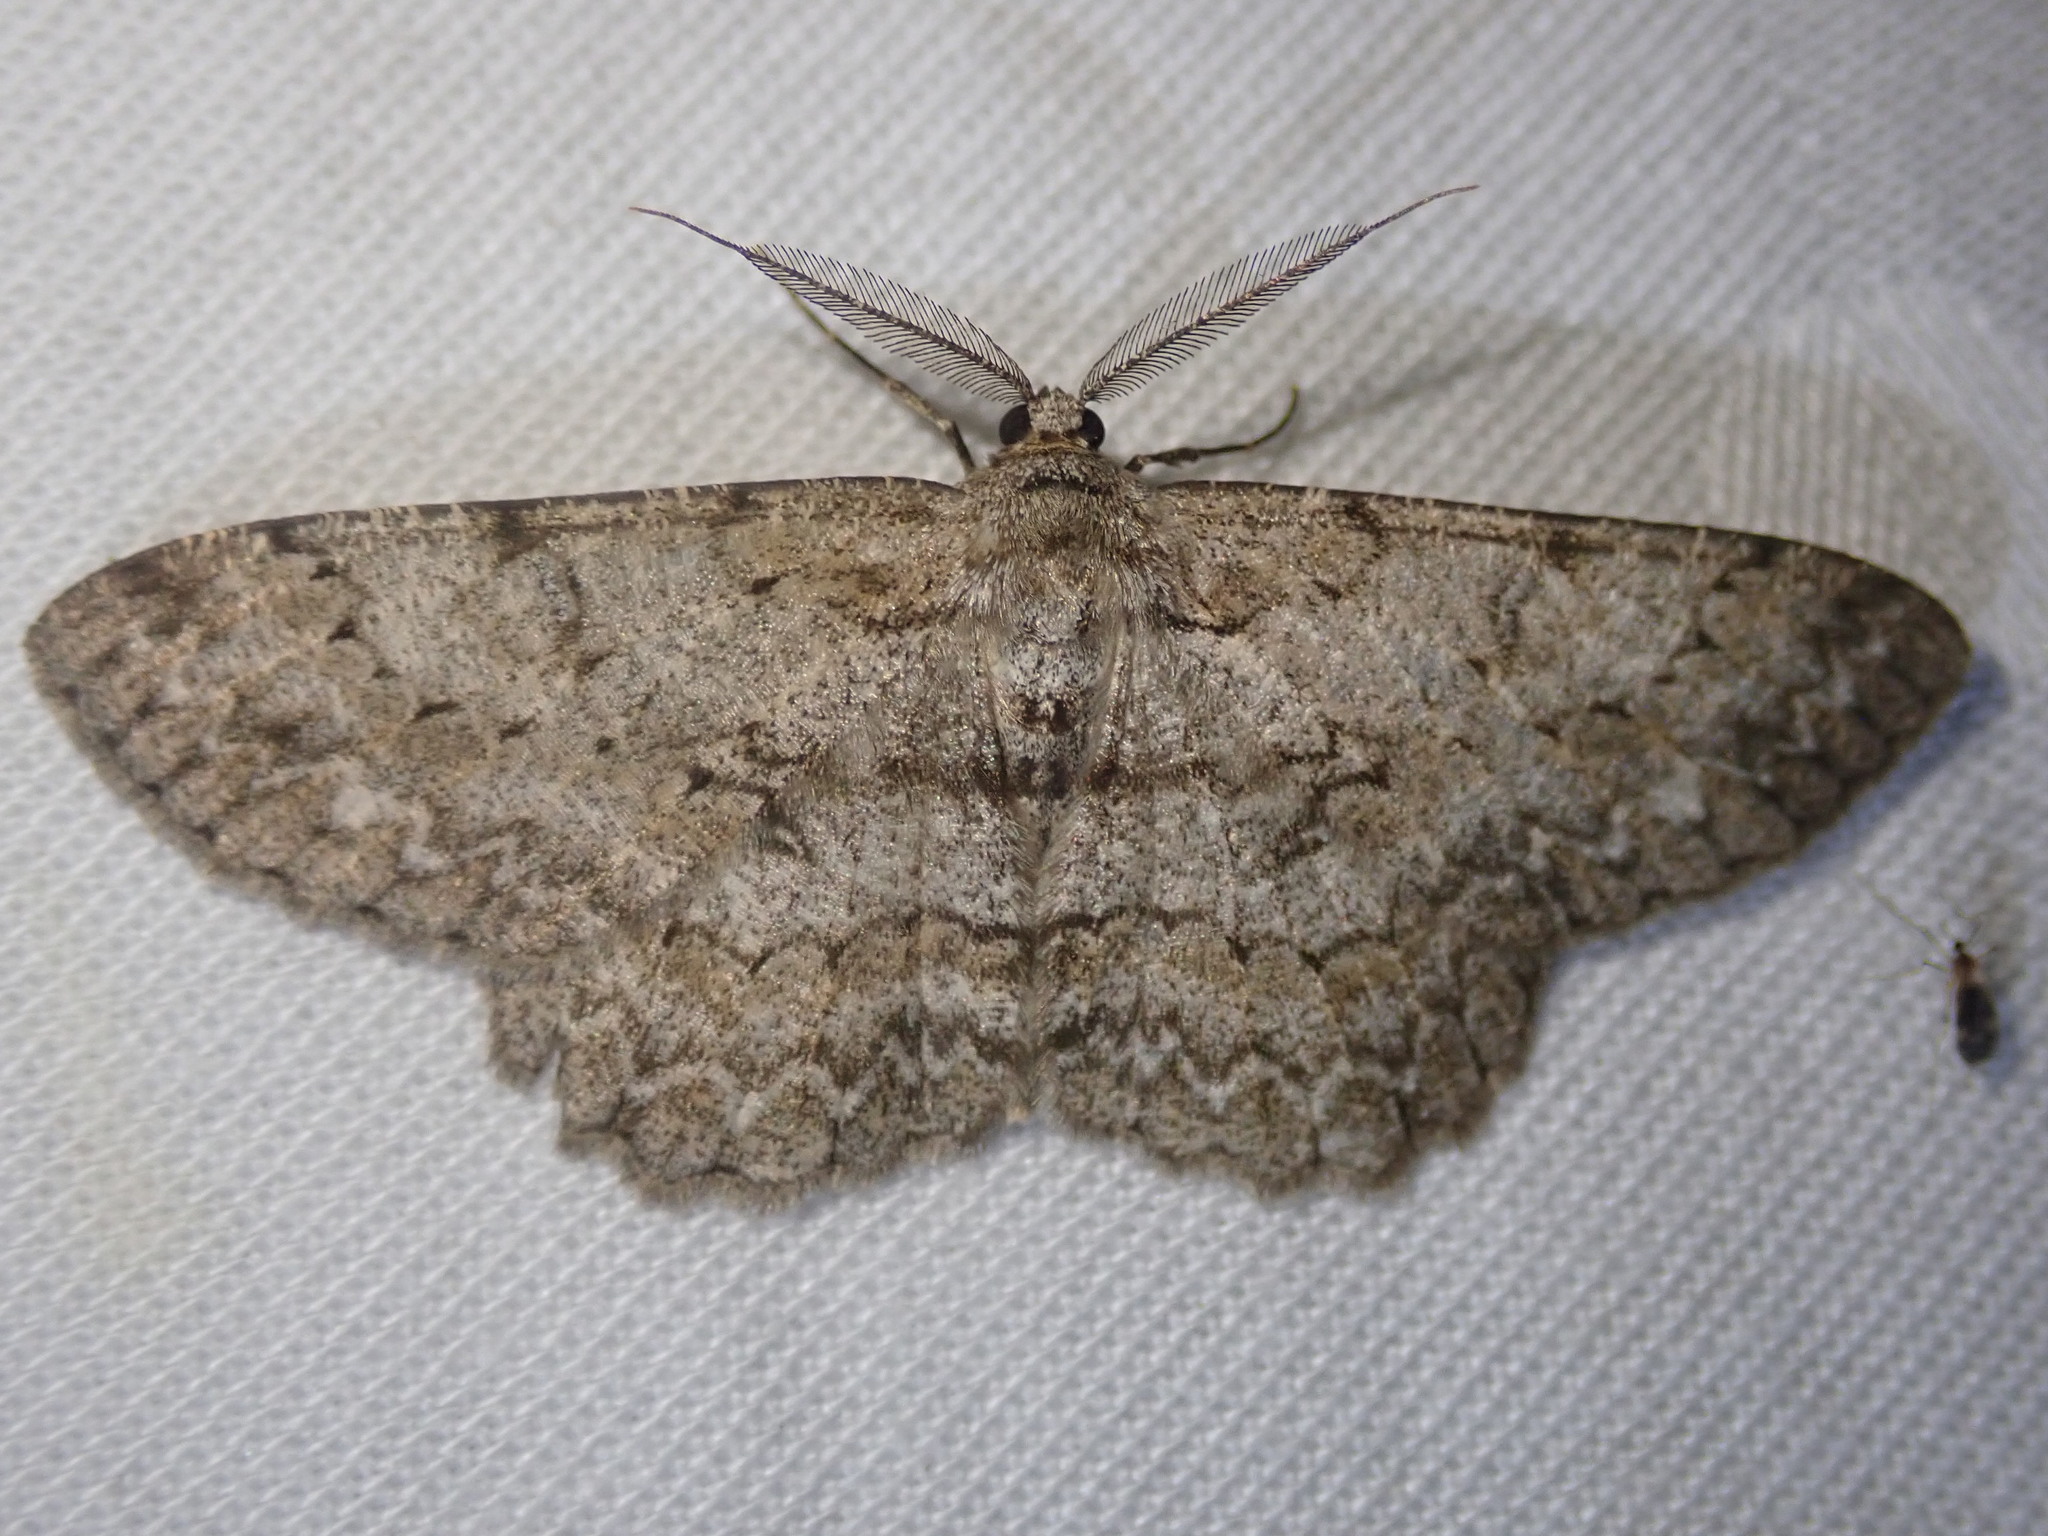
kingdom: Animalia
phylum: Arthropoda
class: Insecta
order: Lepidoptera
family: Geometridae
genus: Hypomecis
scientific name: Hypomecis punctinalis
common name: Pale oak beauty
